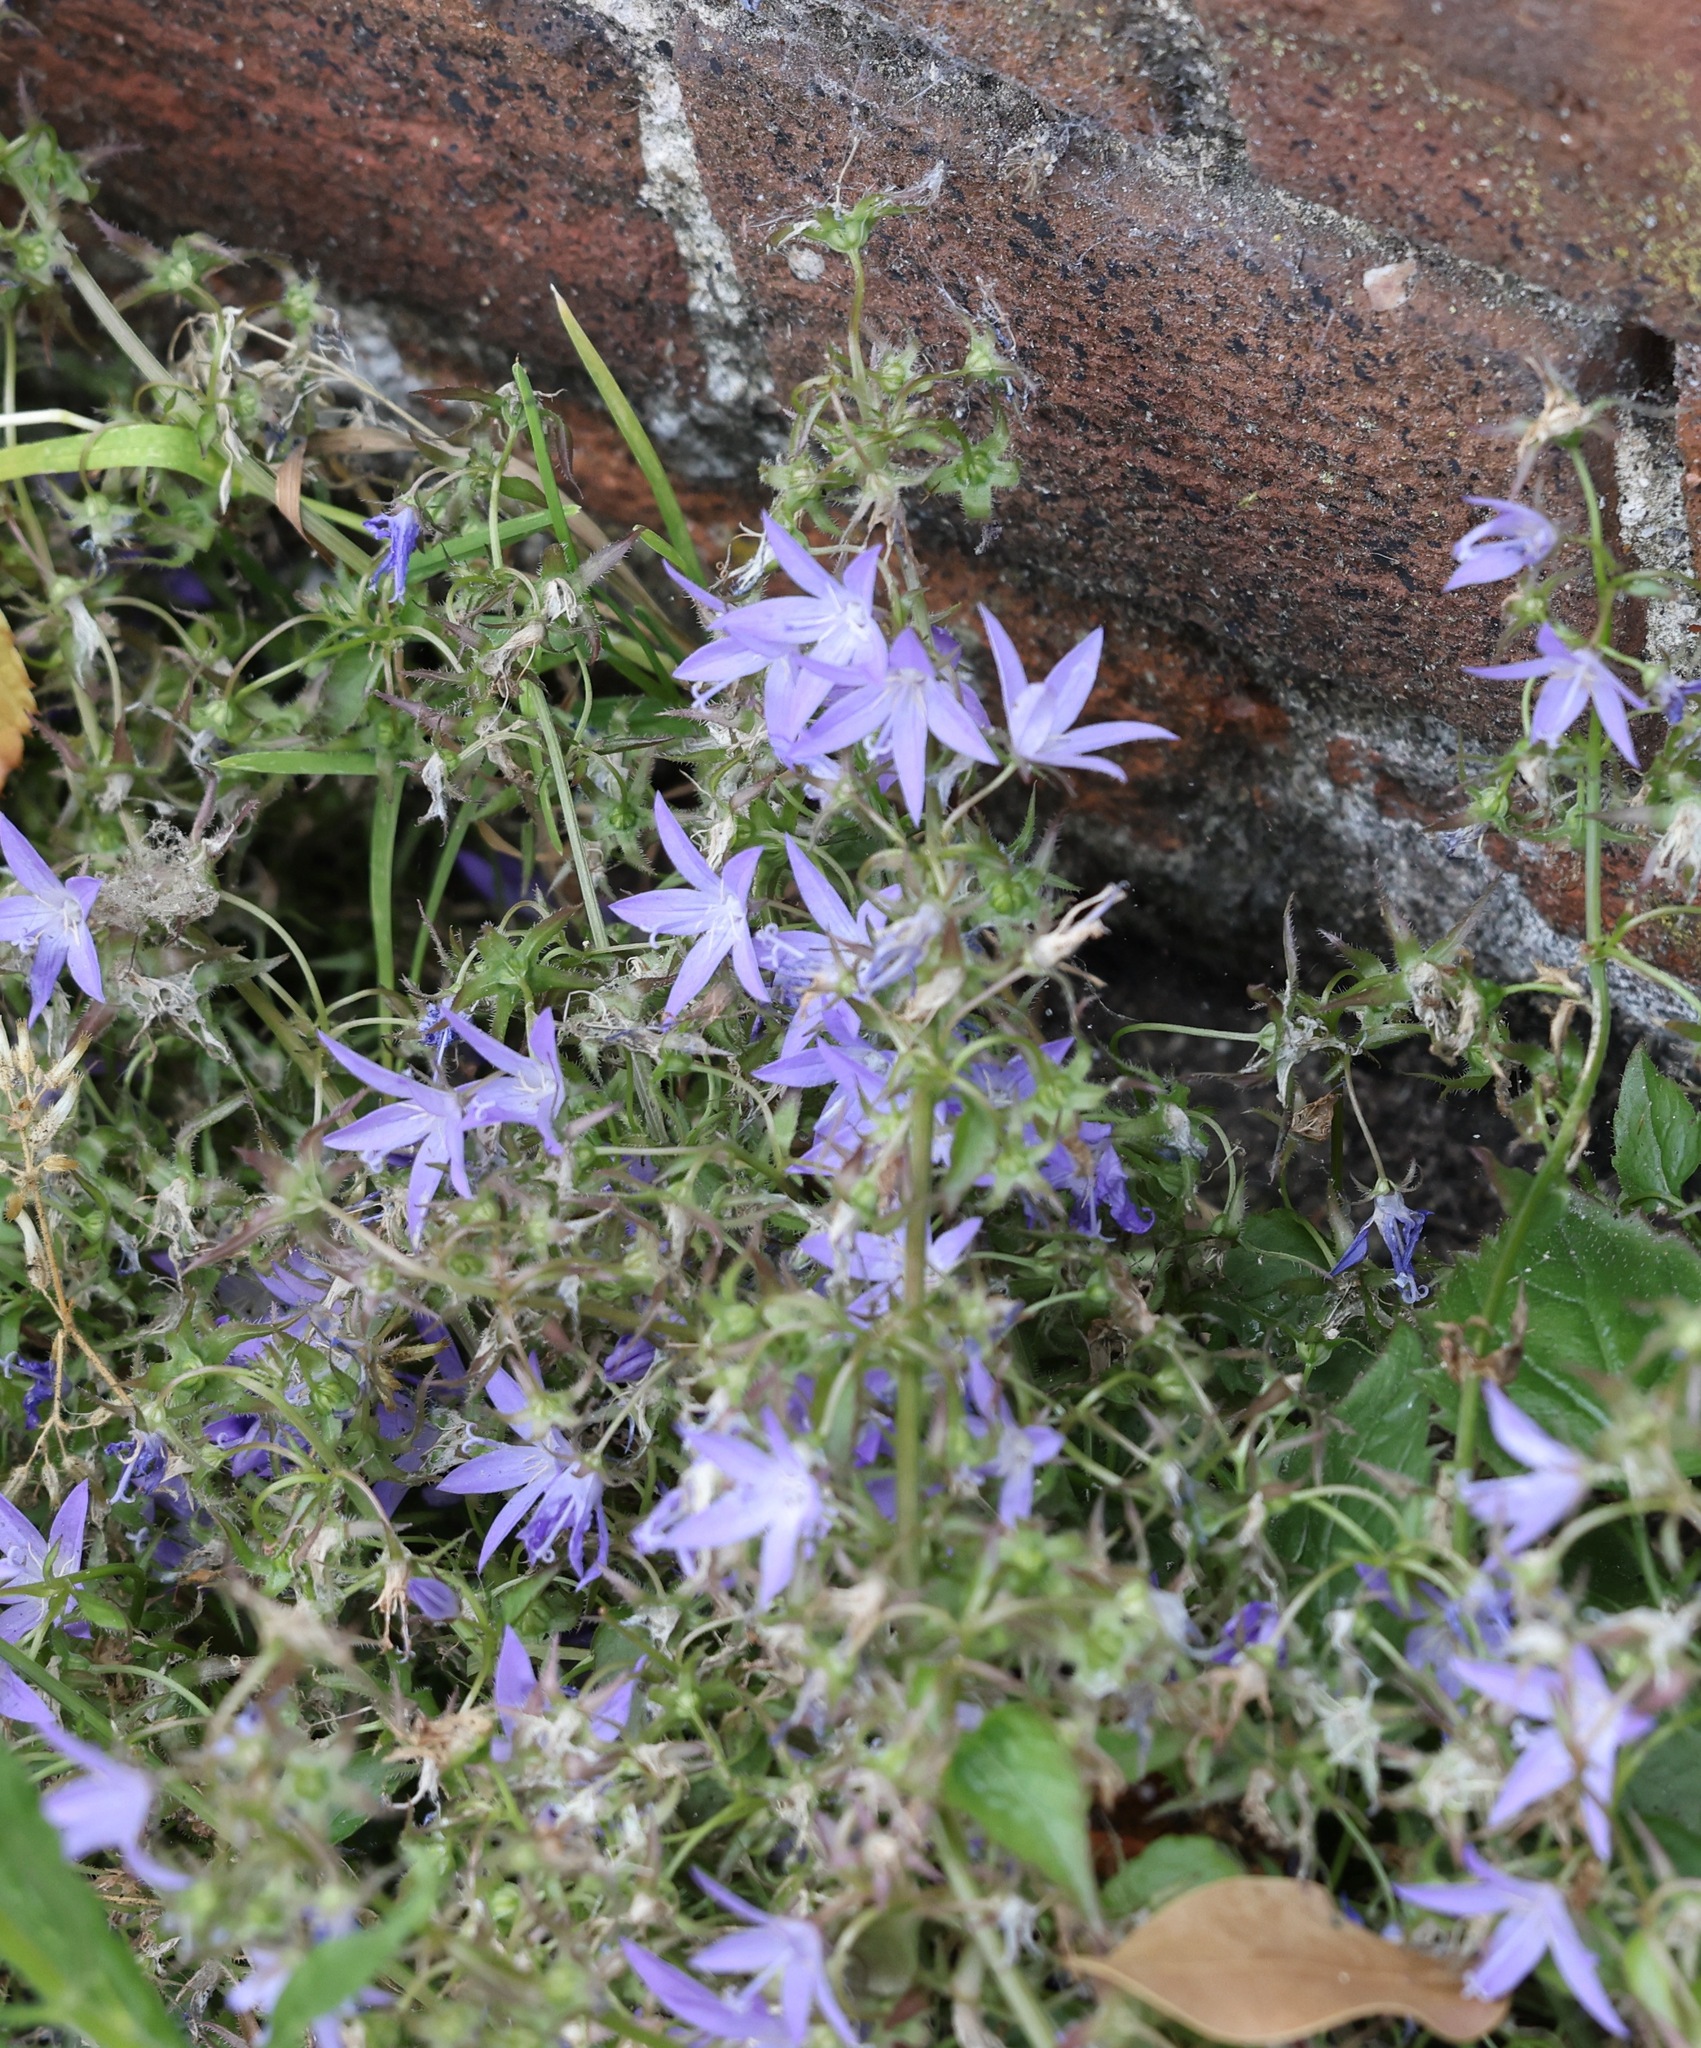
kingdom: Plantae
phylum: Tracheophyta
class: Magnoliopsida
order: Asterales
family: Campanulaceae
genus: Campanula
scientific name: Campanula poscharskyana
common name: Trailing bellflower
